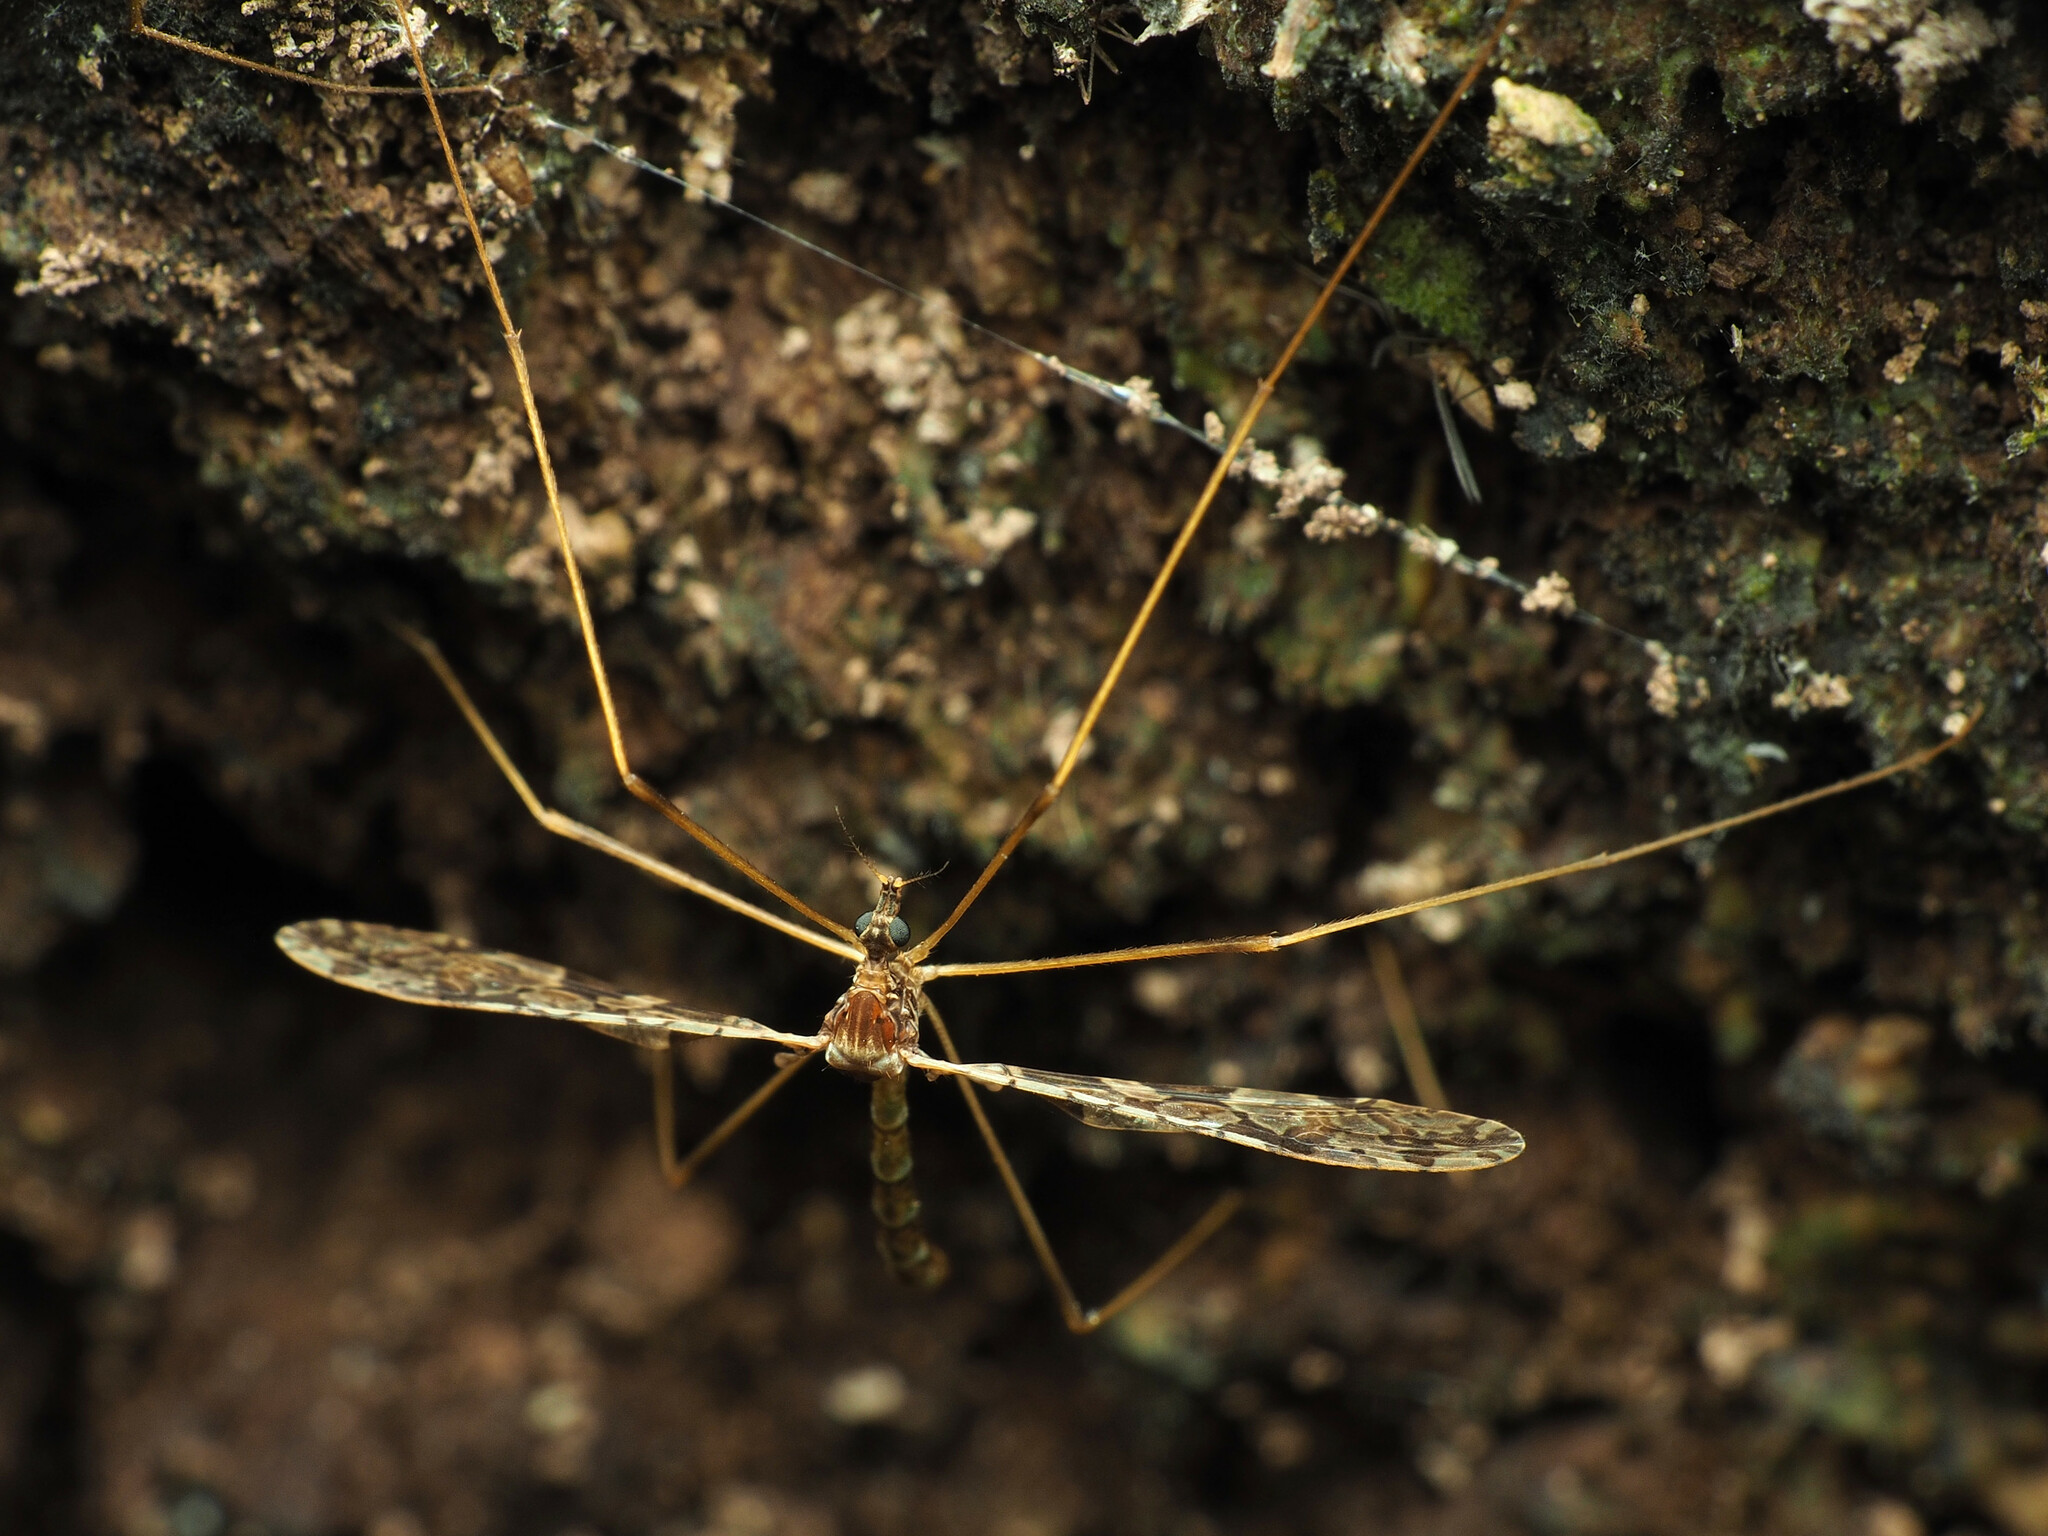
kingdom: Animalia
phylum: Arthropoda
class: Insecta
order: Diptera
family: Limoniidae
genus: Epiphragma
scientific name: Epiphragma solatrix
